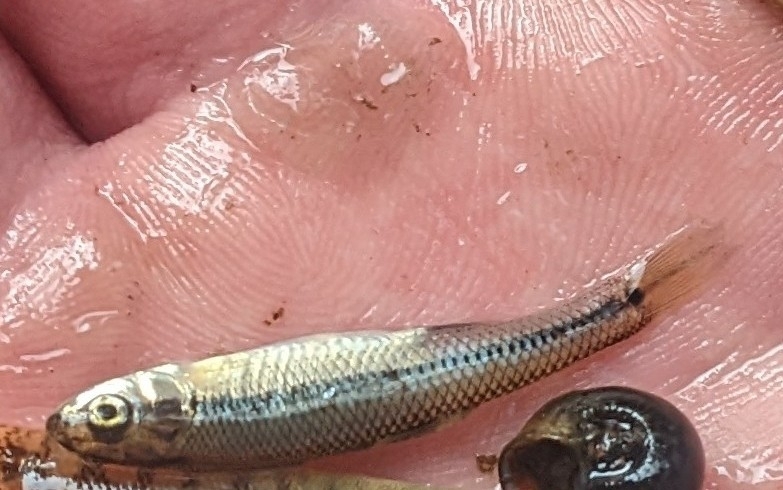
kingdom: Animalia
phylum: Chordata
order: Cypriniformes
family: Cyprinidae
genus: Pimephales
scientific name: Pimephales notatus
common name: Bluntnose minnow
